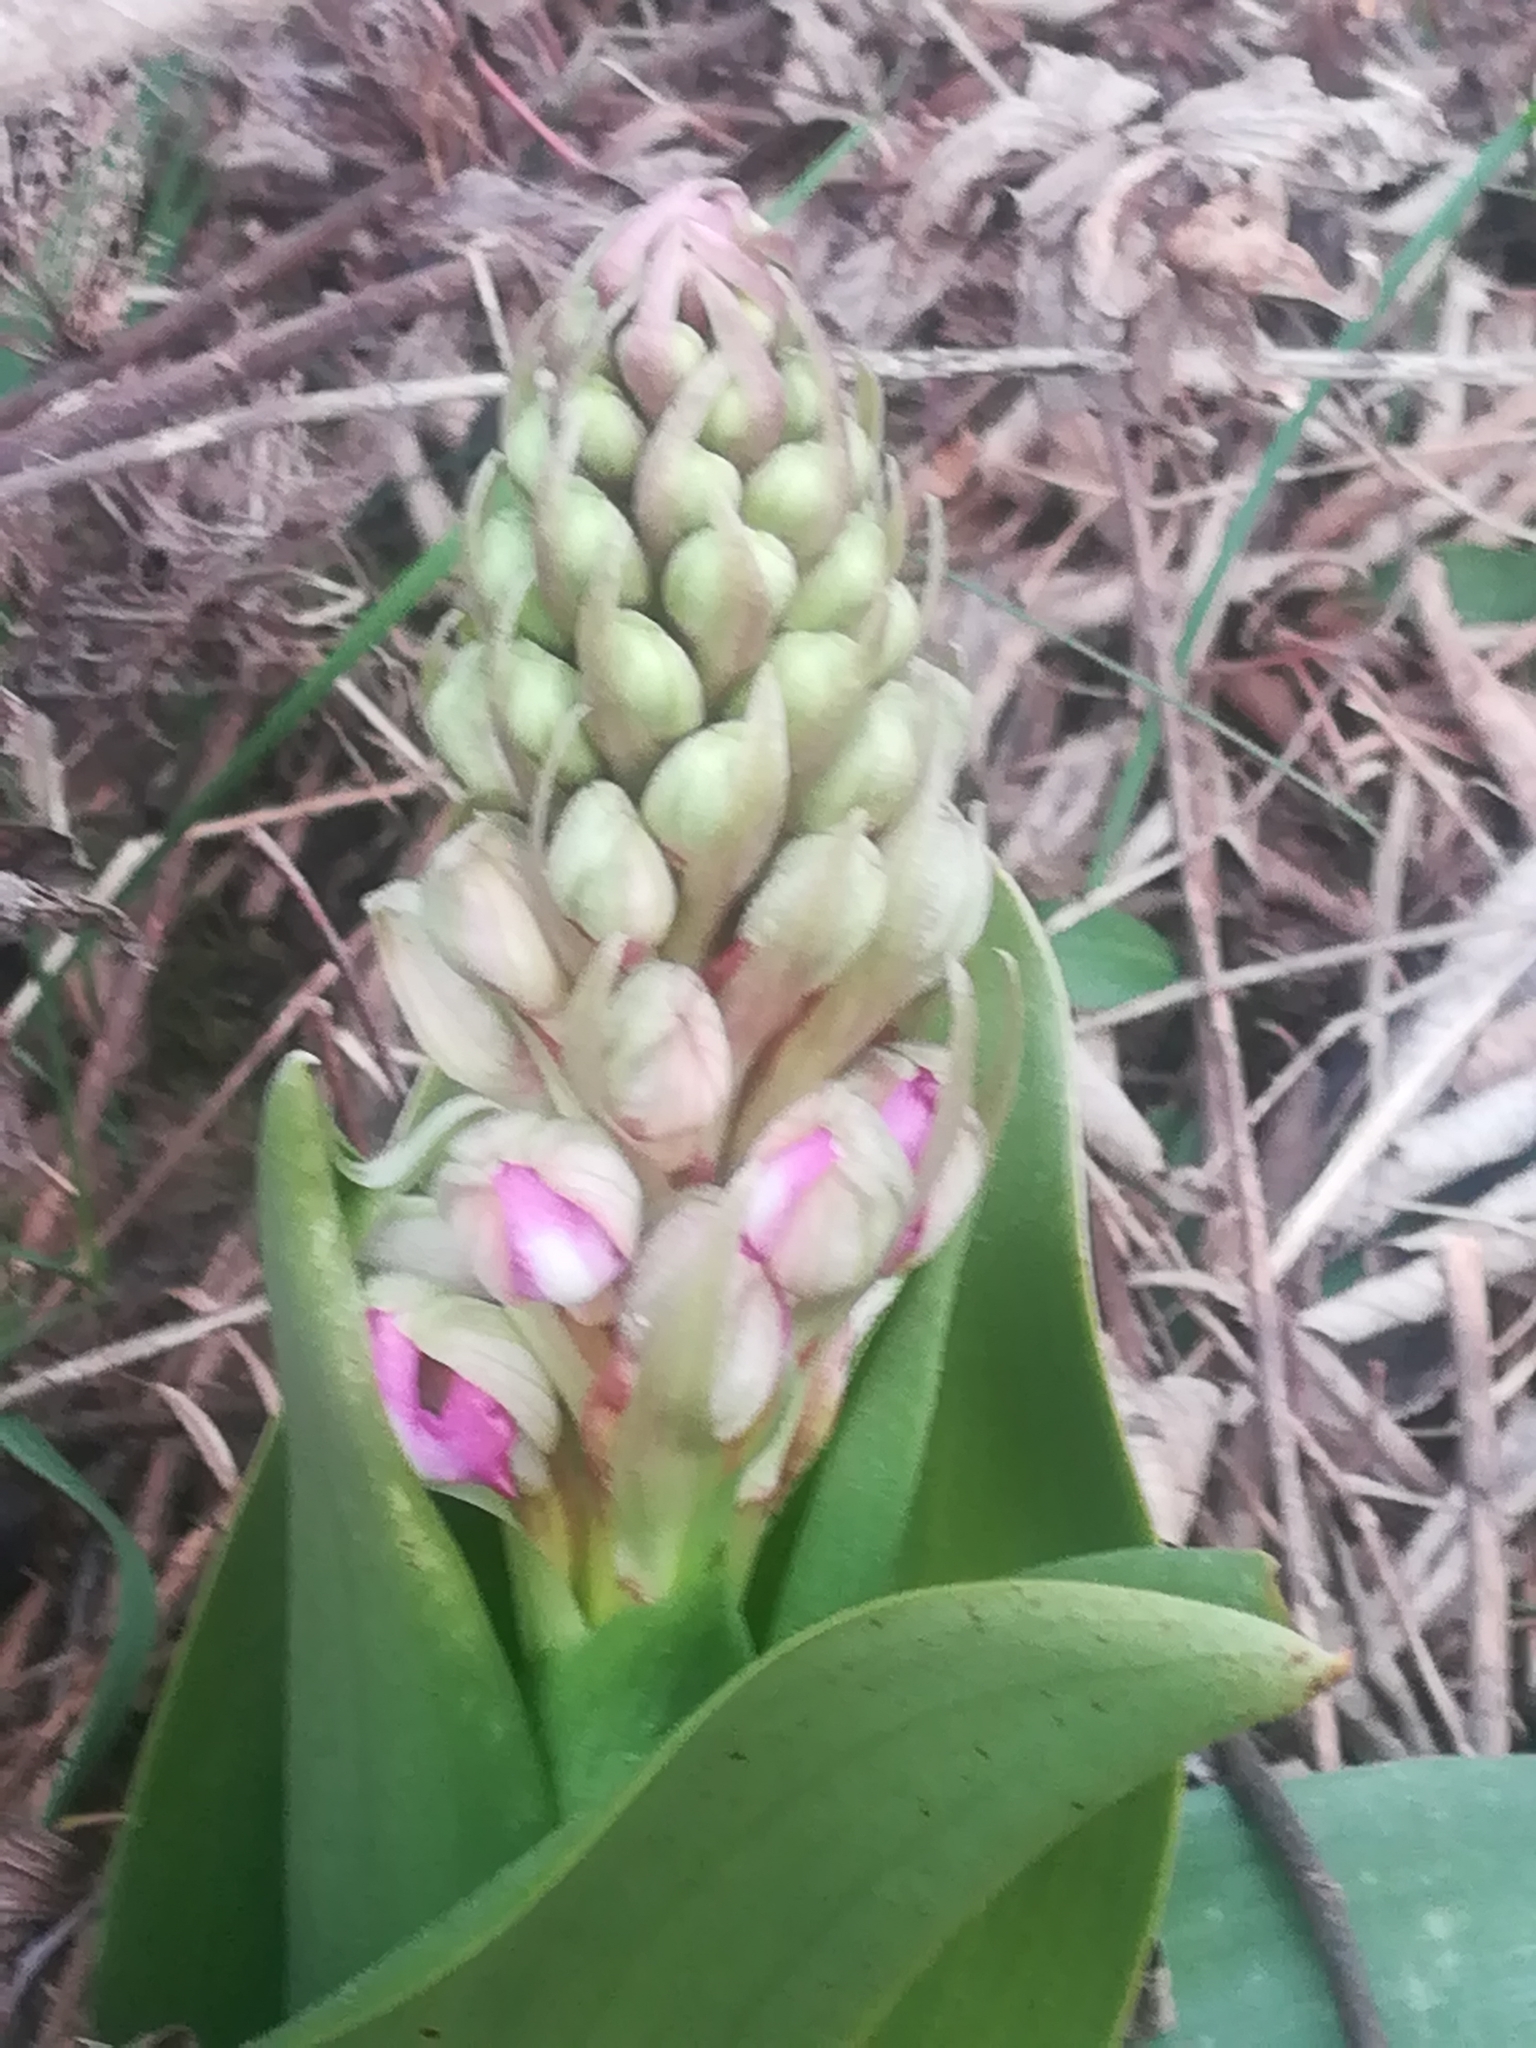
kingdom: Plantae
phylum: Tracheophyta
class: Liliopsida
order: Asparagales
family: Orchidaceae
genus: Himantoglossum
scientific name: Himantoglossum robertianum
